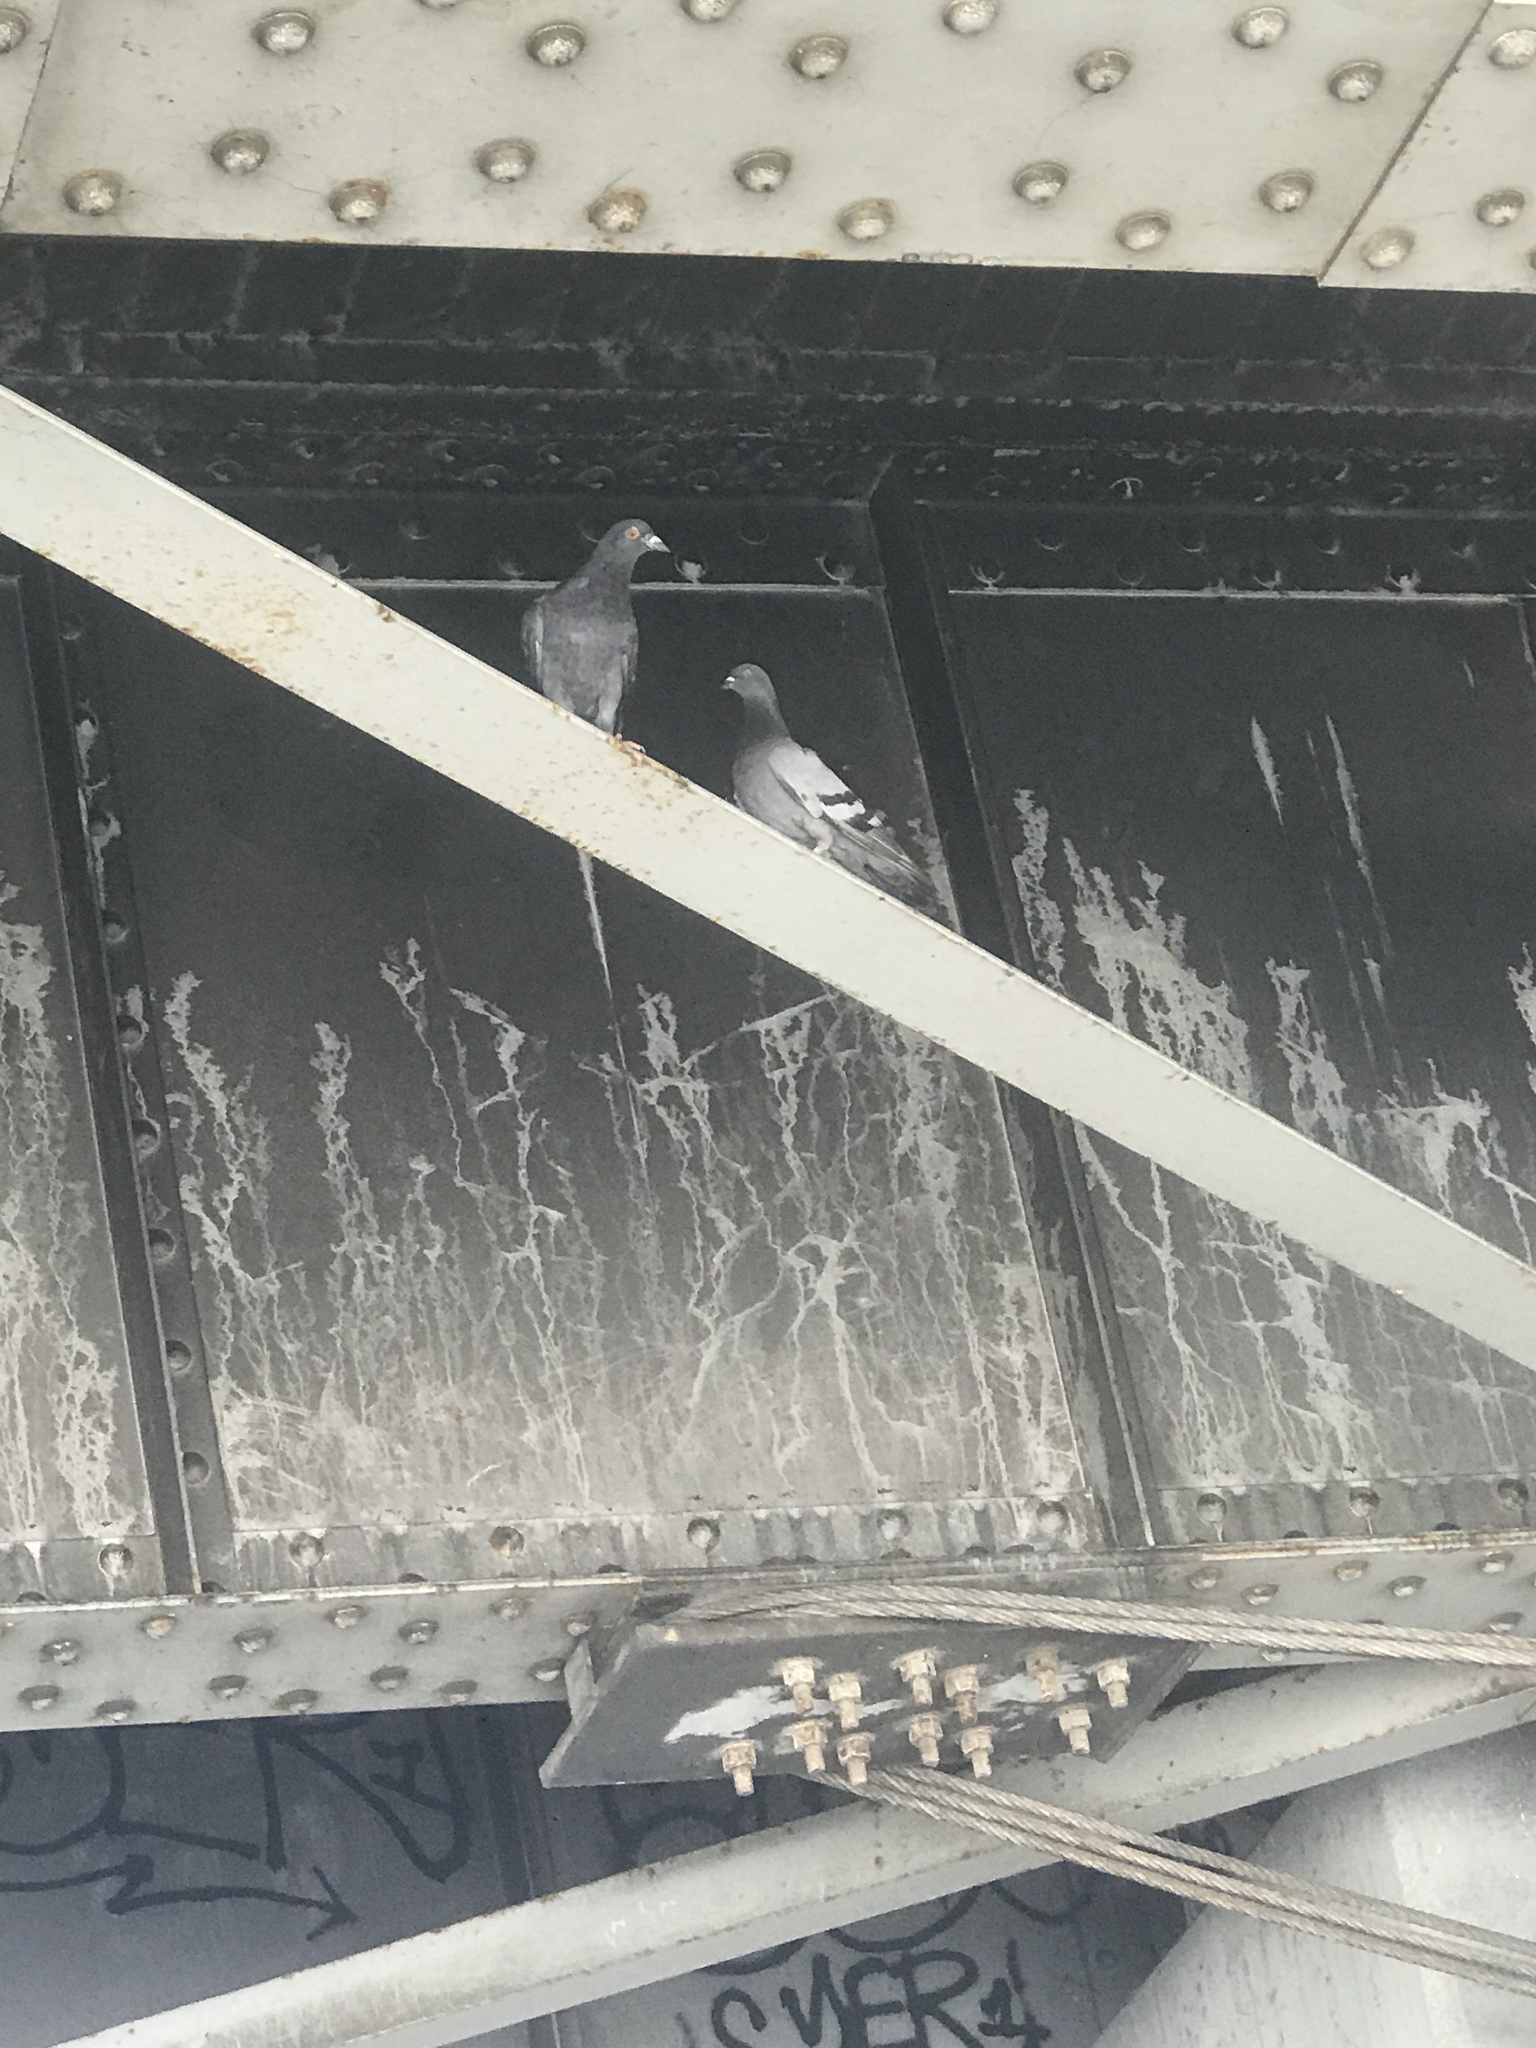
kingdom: Animalia
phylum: Chordata
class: Aves
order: Columbiformes
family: Columbidae
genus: Columba
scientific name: Columba livia
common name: Rock pigeon
